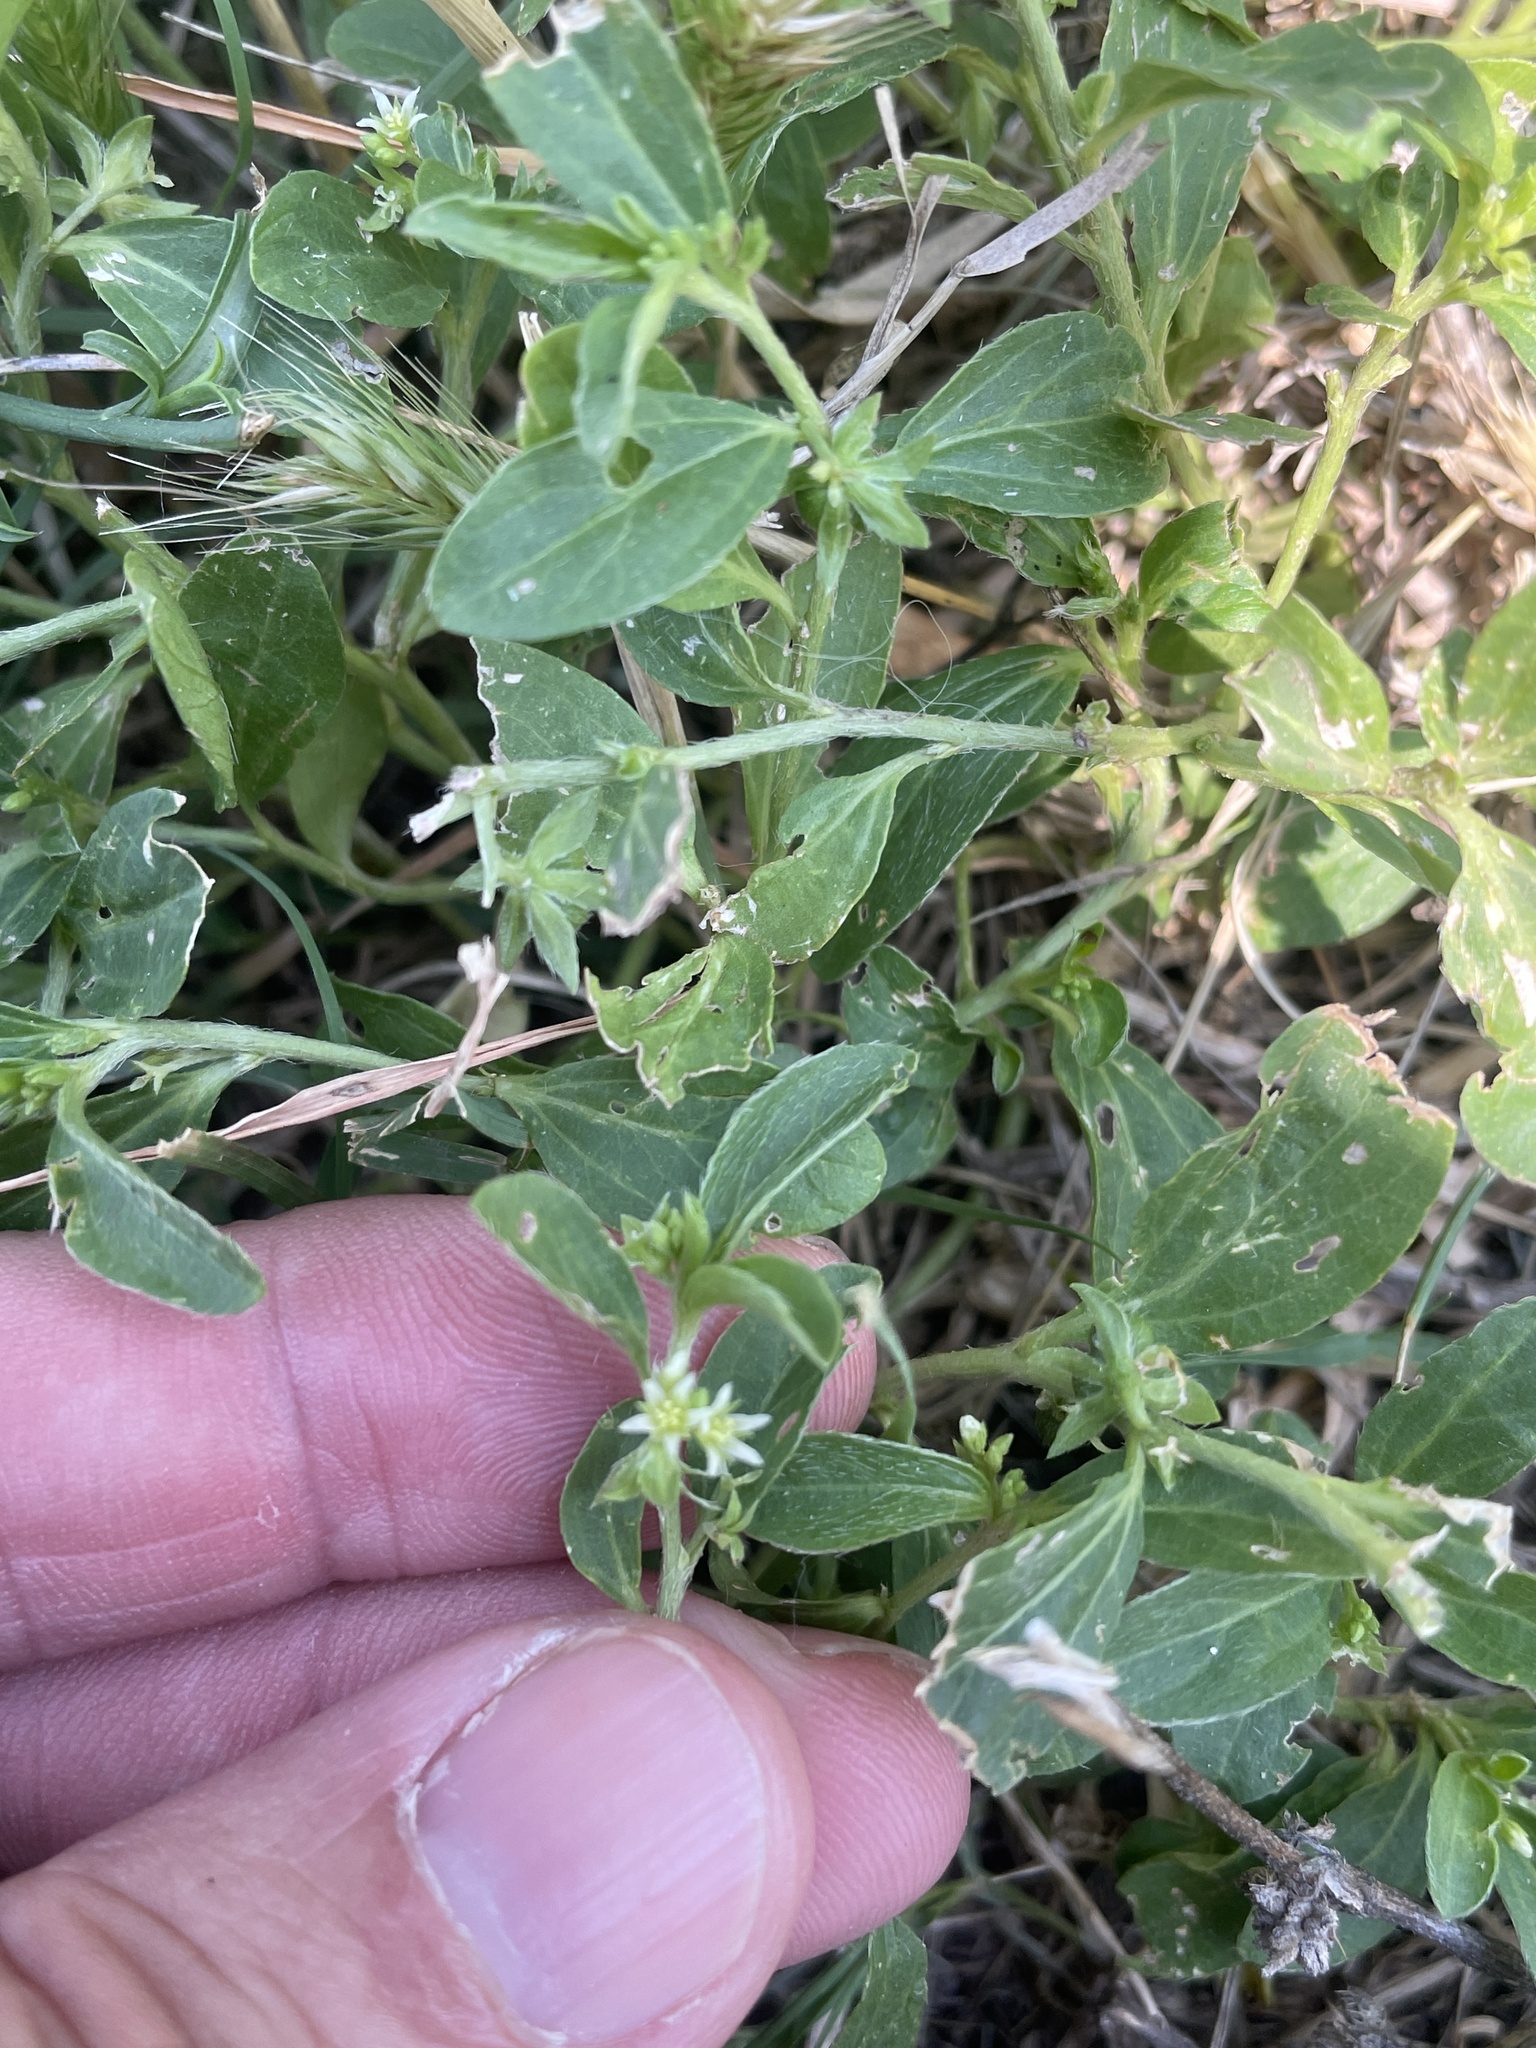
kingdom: Plantae
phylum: Tracheophyta
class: Magnoliopsida
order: Malpighiales
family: Euphorbiaceae
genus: Ditaxis
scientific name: Ditaxis humilis
